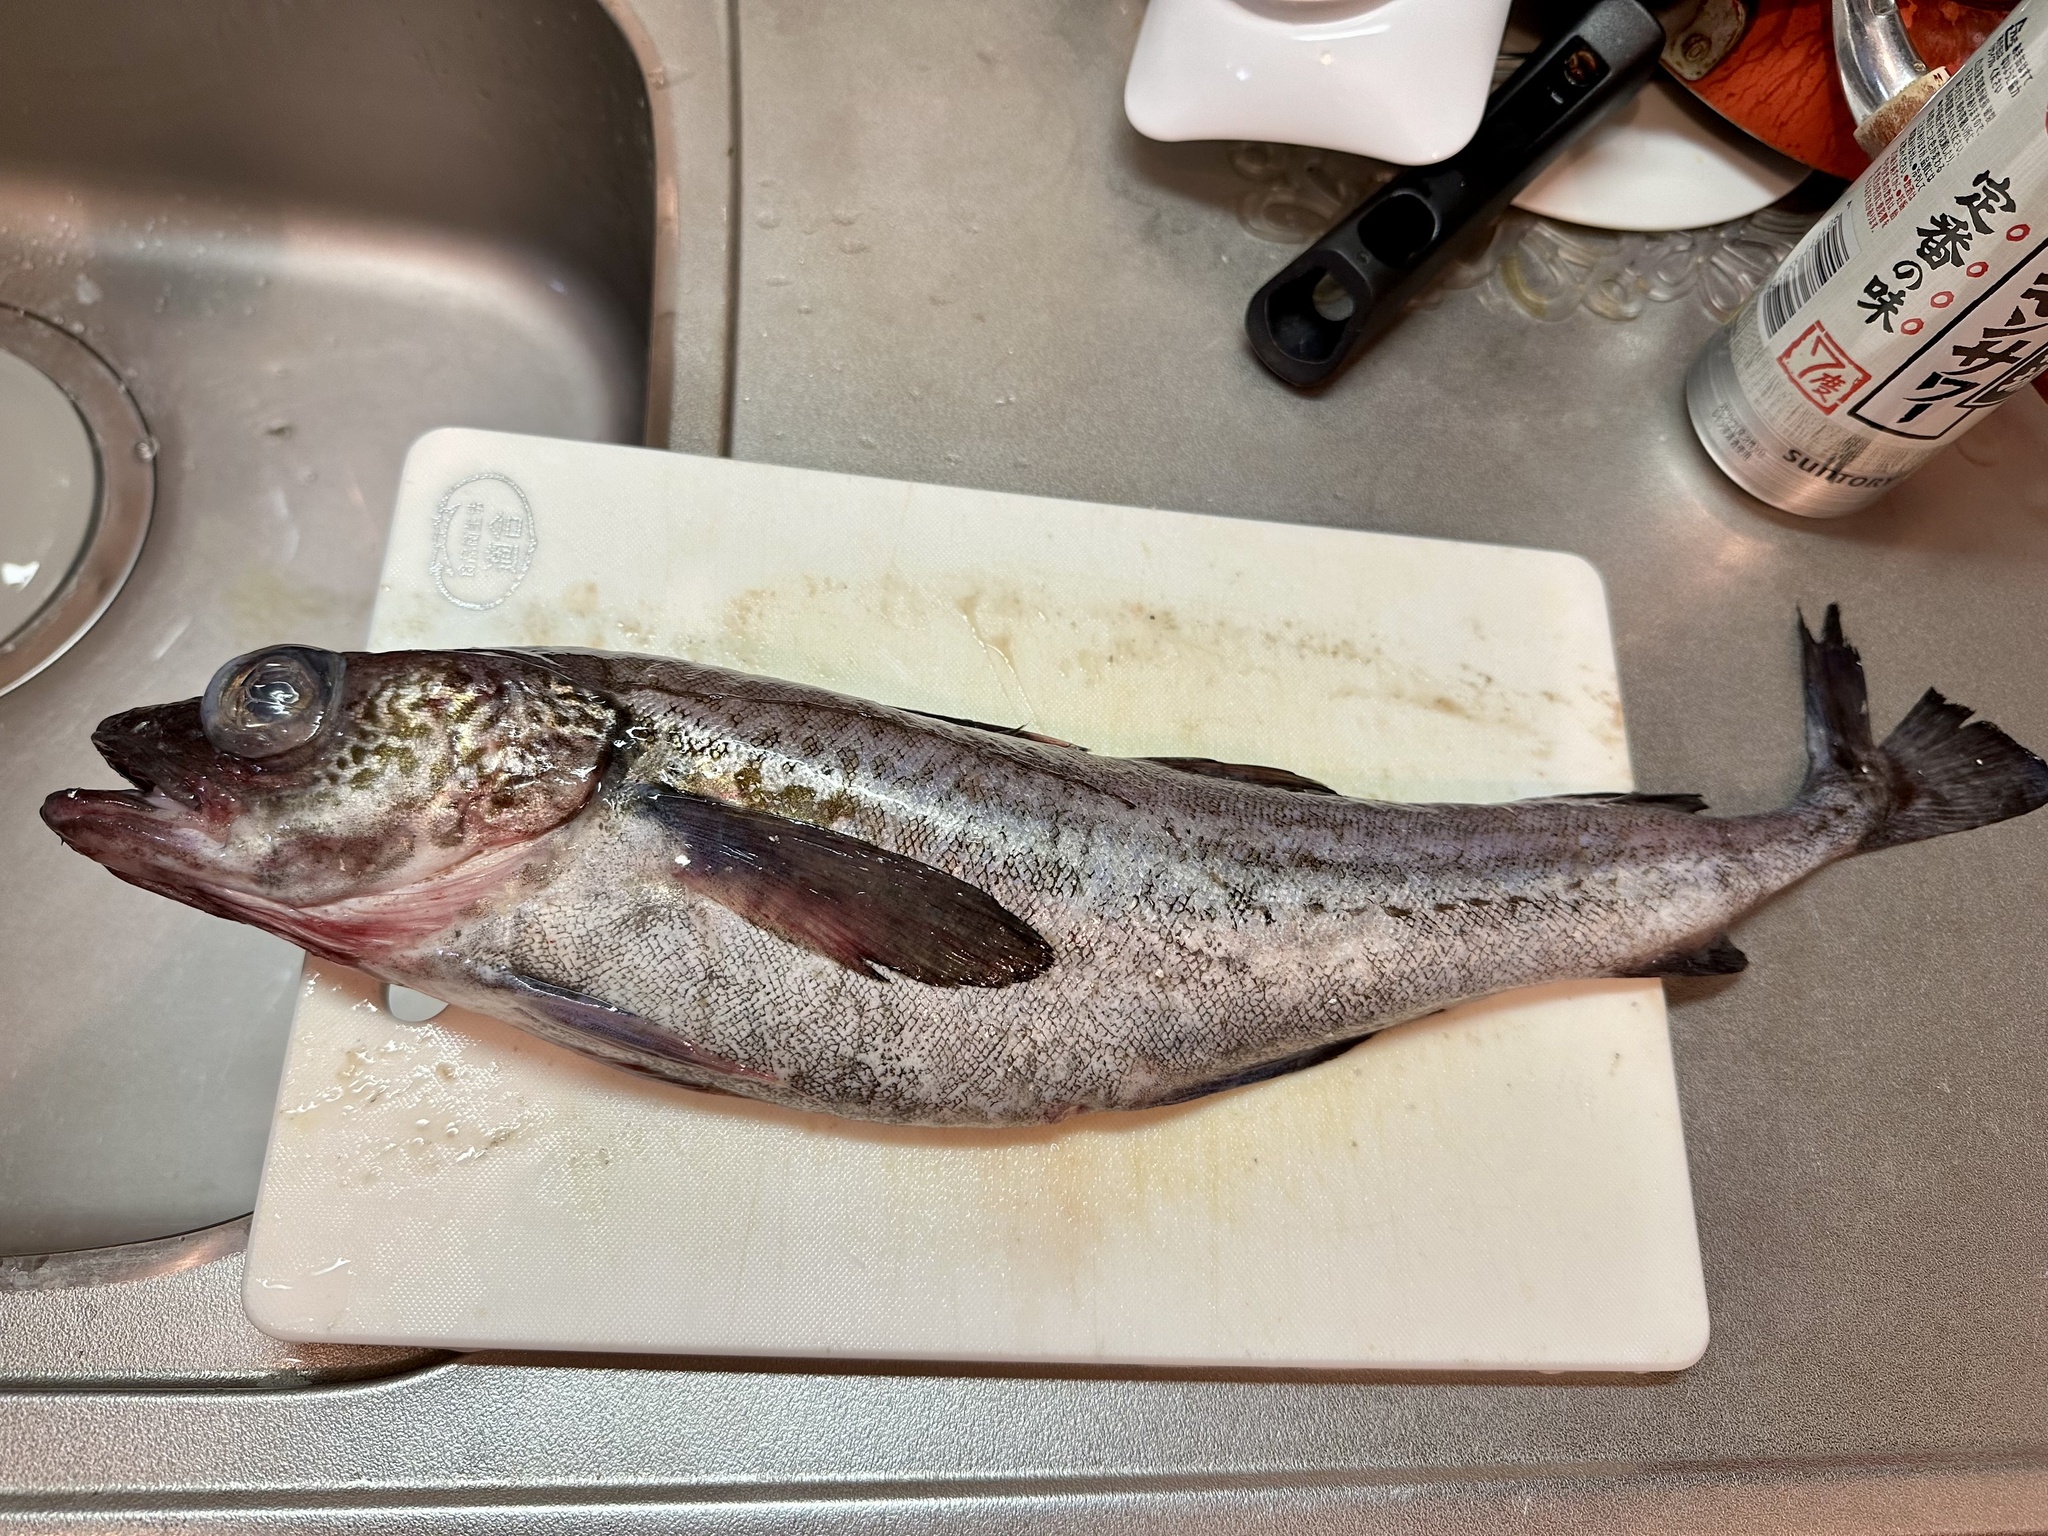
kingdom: Animalia
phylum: Chordata
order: Gadiformes
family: Gadidae
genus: Gadus
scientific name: Gadus chalcogrammus
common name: Walleye pollock
